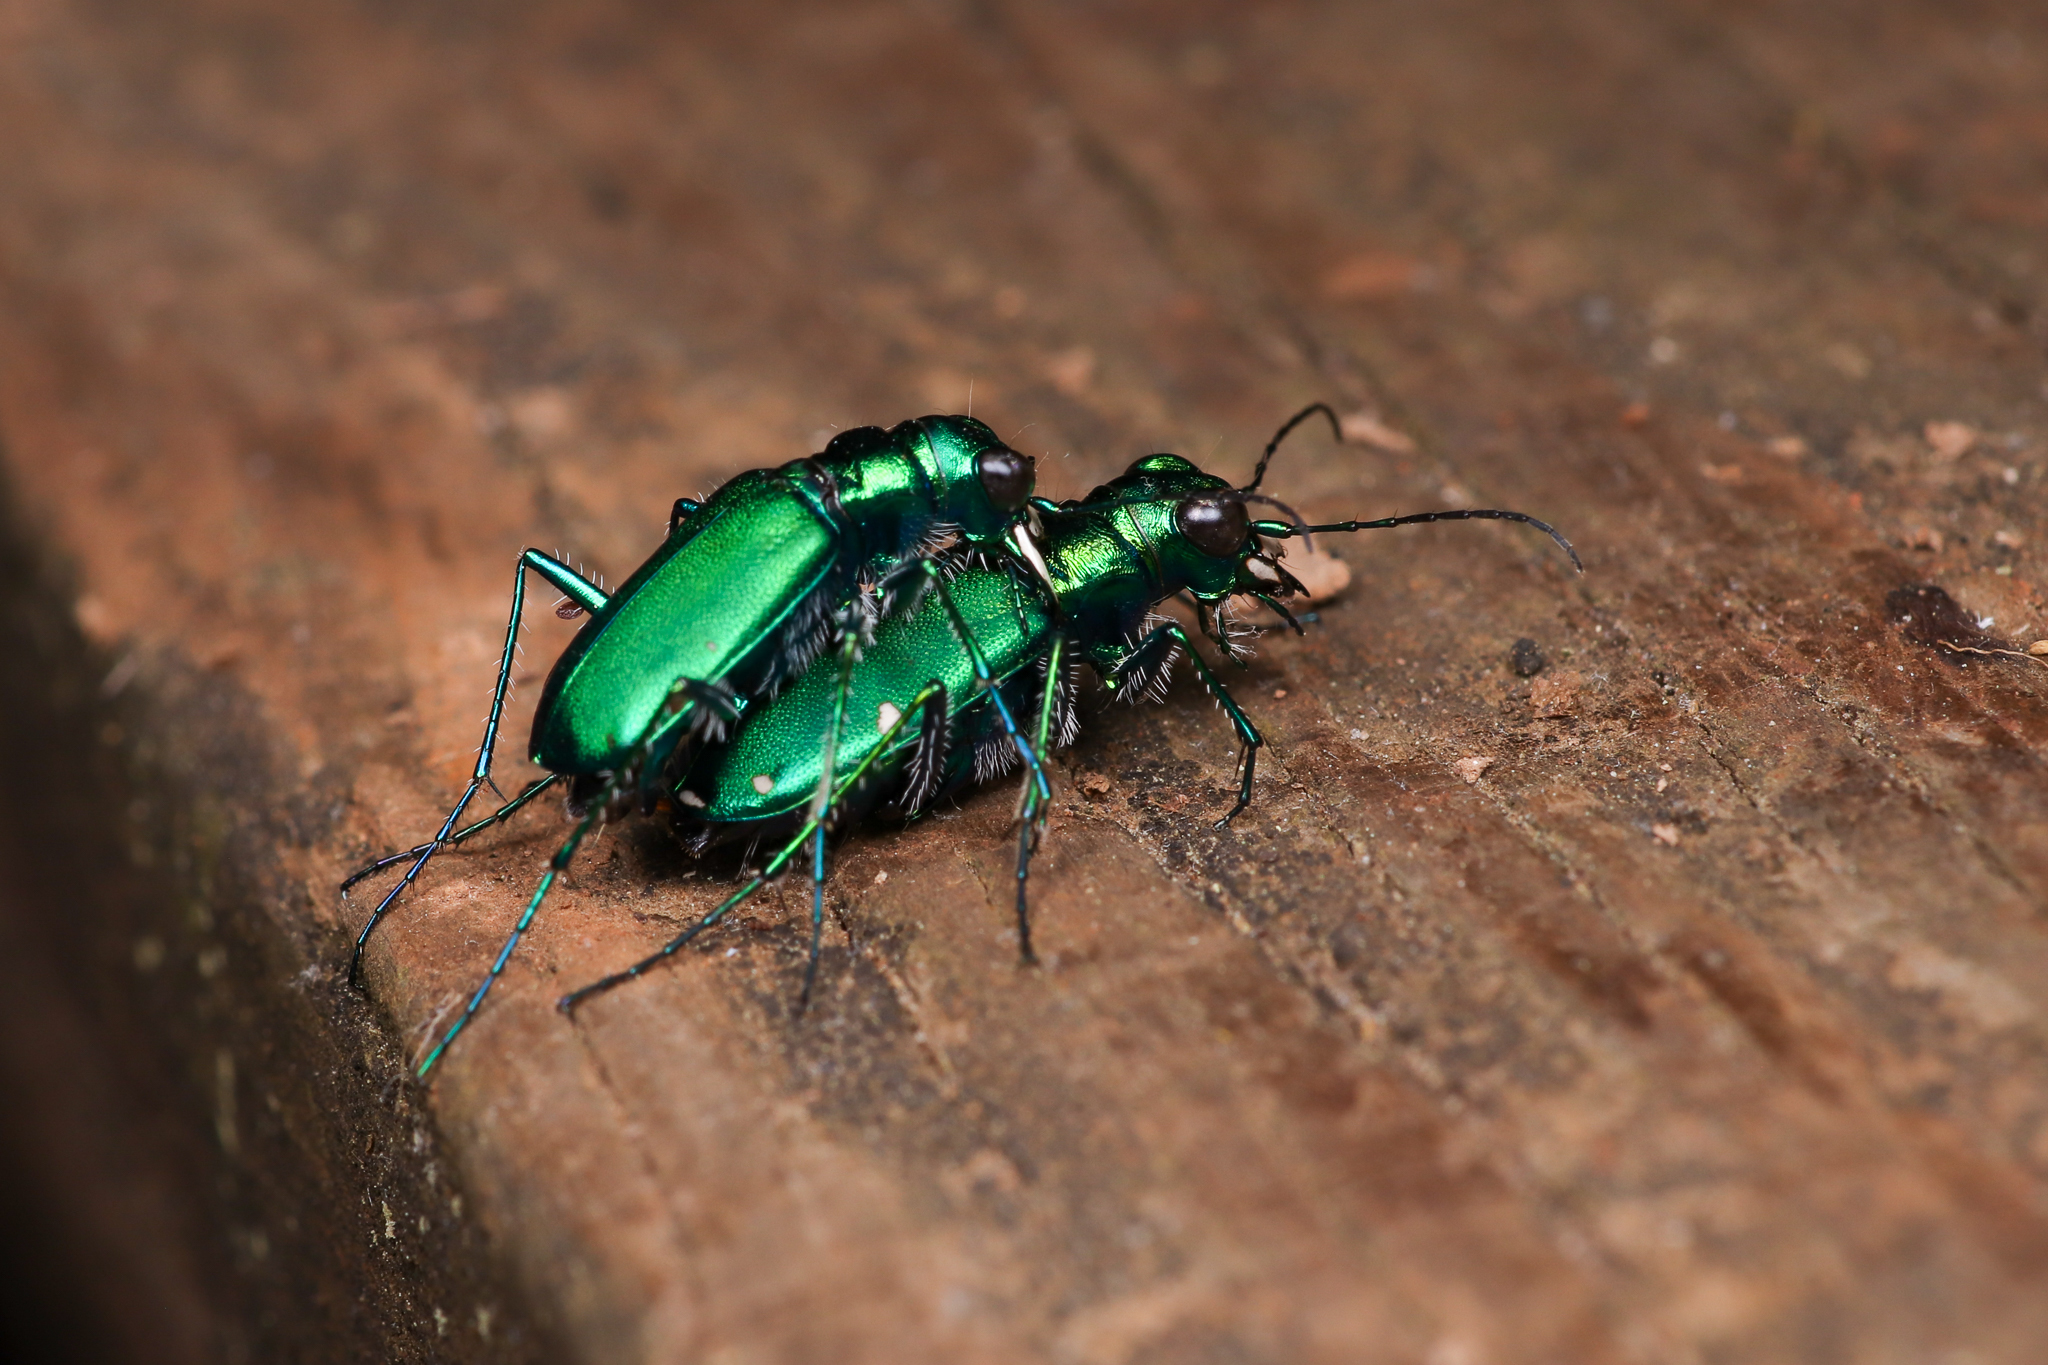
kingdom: Animalia
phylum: Arthropoda
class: Insecta
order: Coleoptera
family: Carabidae
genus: Cicindela
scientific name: Cicindela sexguttata
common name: Six-spotted tiger beetle
